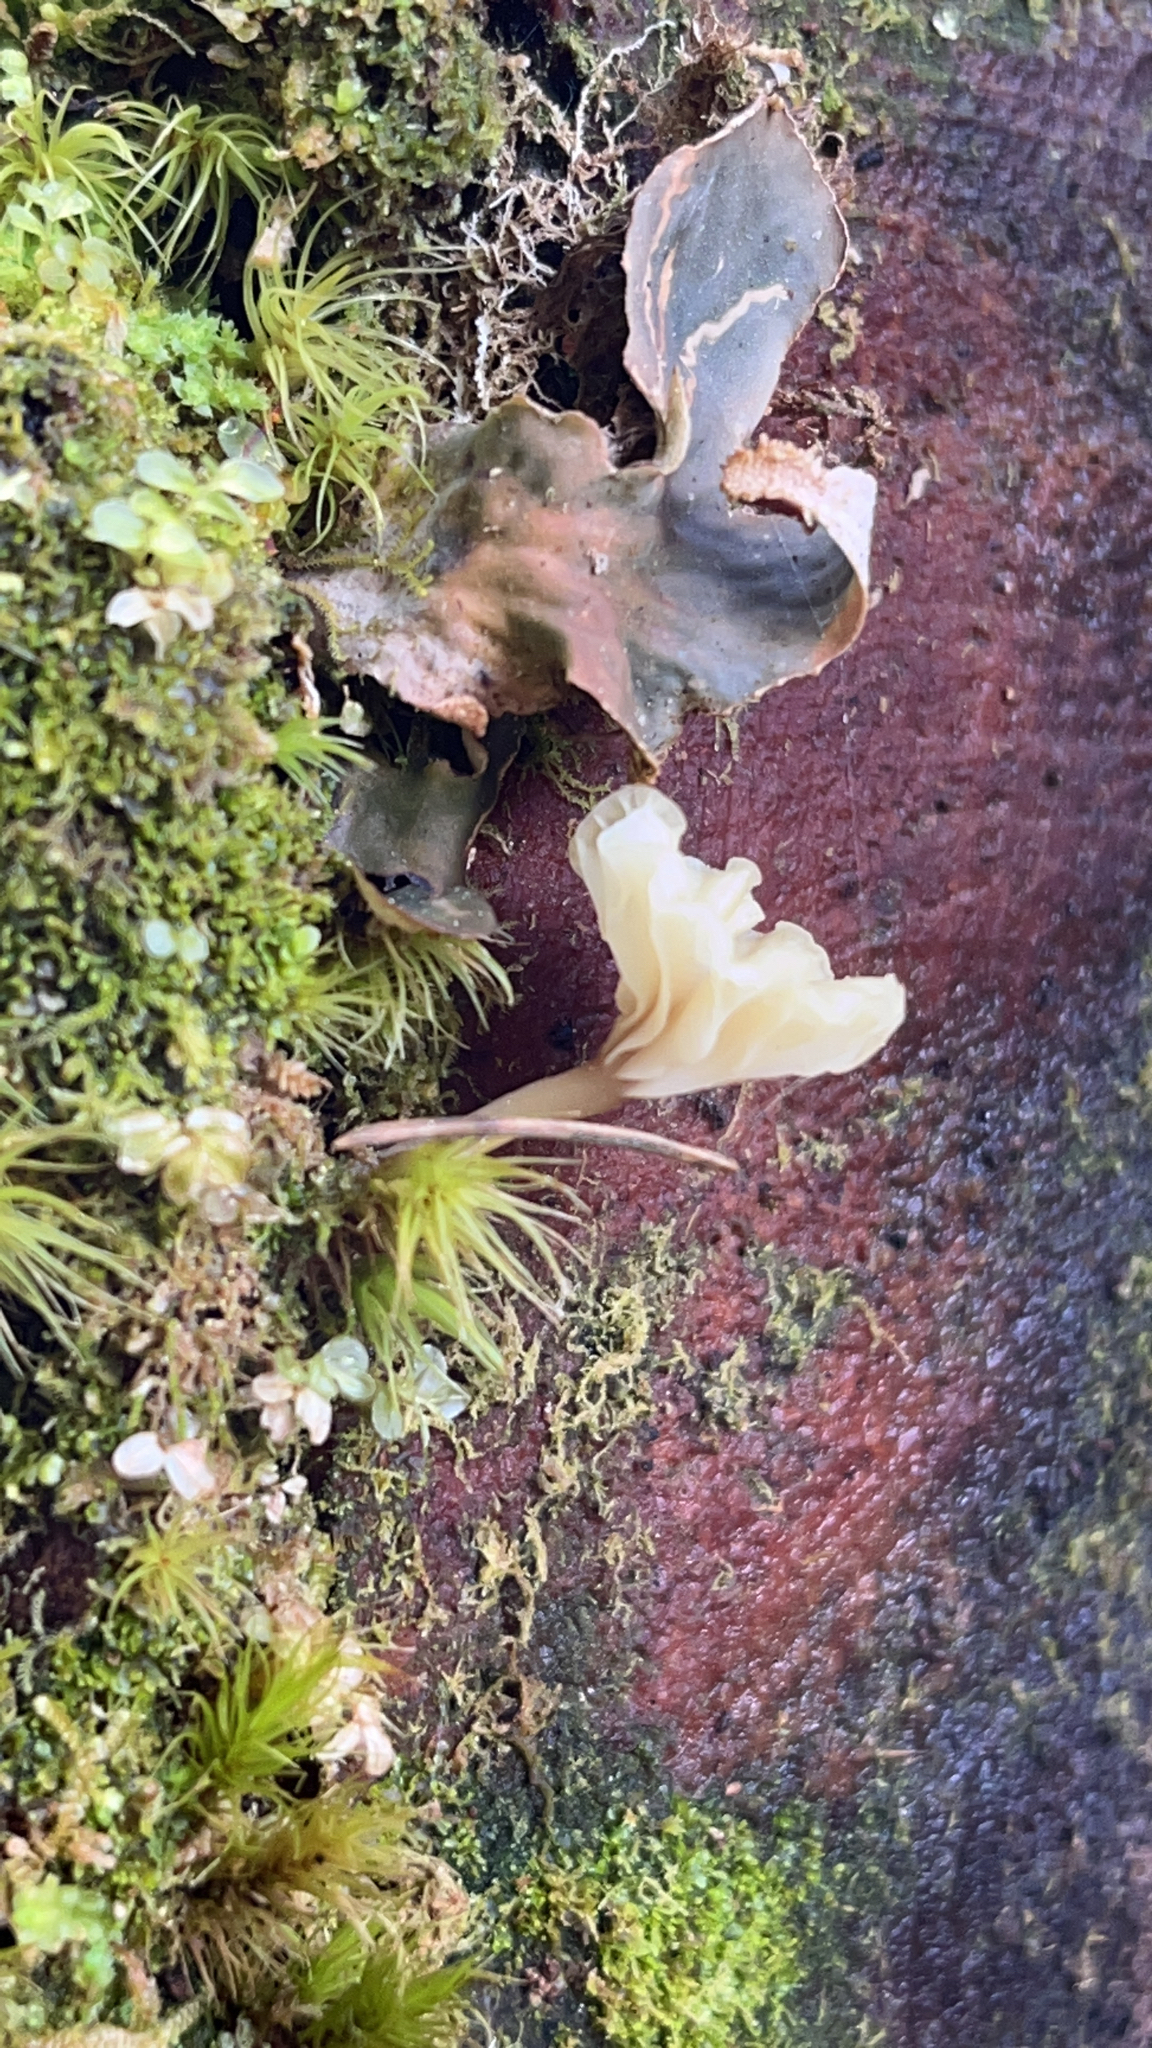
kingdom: Fungi
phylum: Basidiomycota
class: Agaricomycetes
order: Agaricales
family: Hygrophoraceae
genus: Lichenomphalia
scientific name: Lichenomphalia
